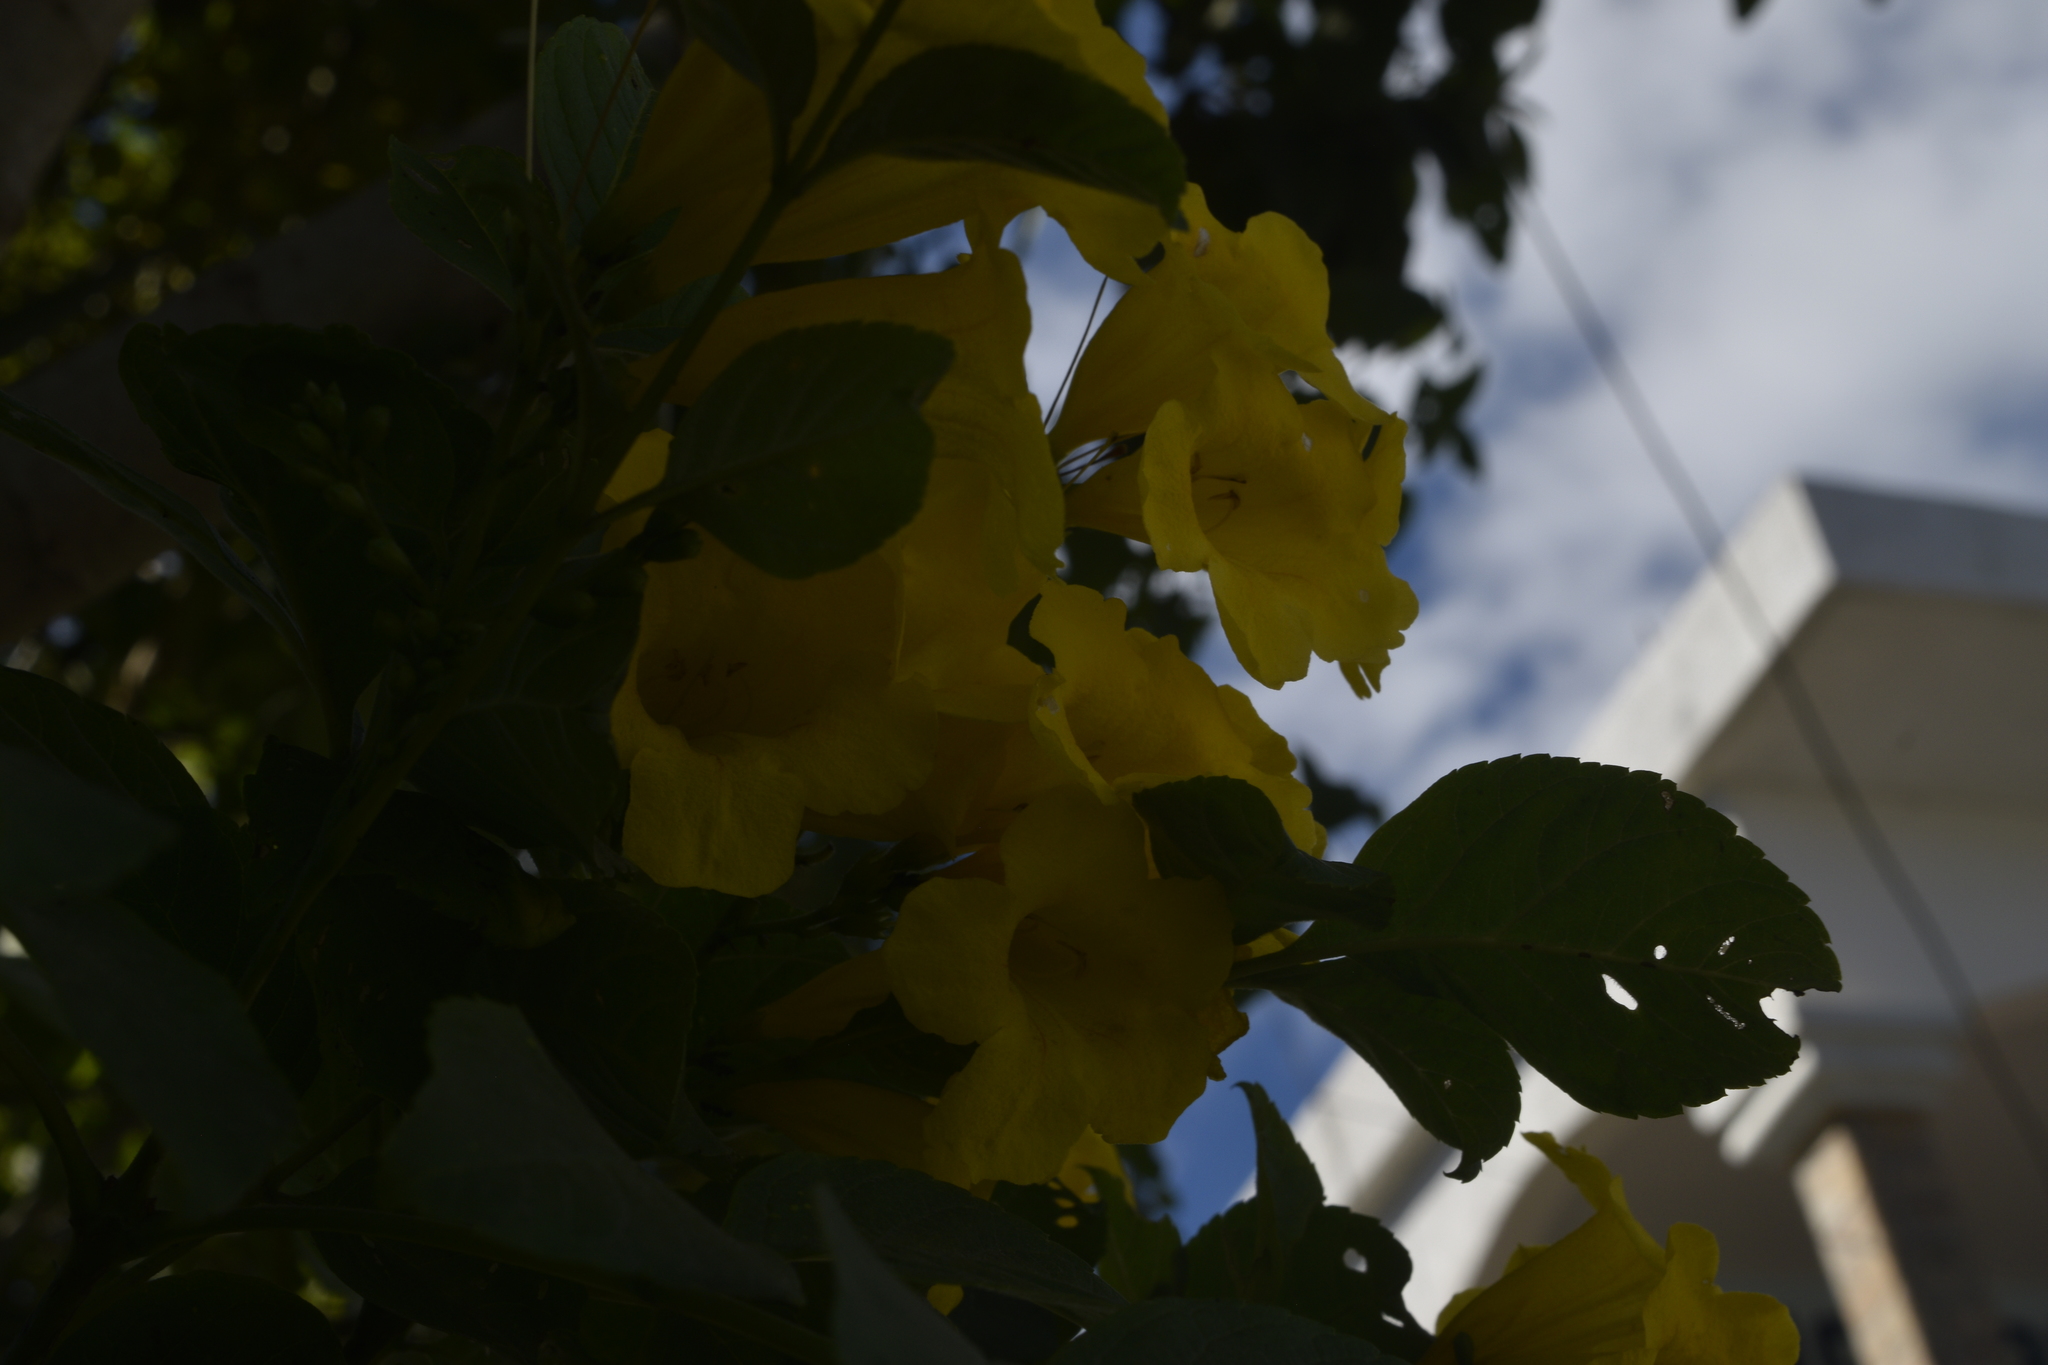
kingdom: Plantae
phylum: Tracheophyta
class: Magnoliopsida
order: Lamiales
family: Bignoniaceae
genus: Tecoma
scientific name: Tecoma stans
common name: Yellow trumpetbush
